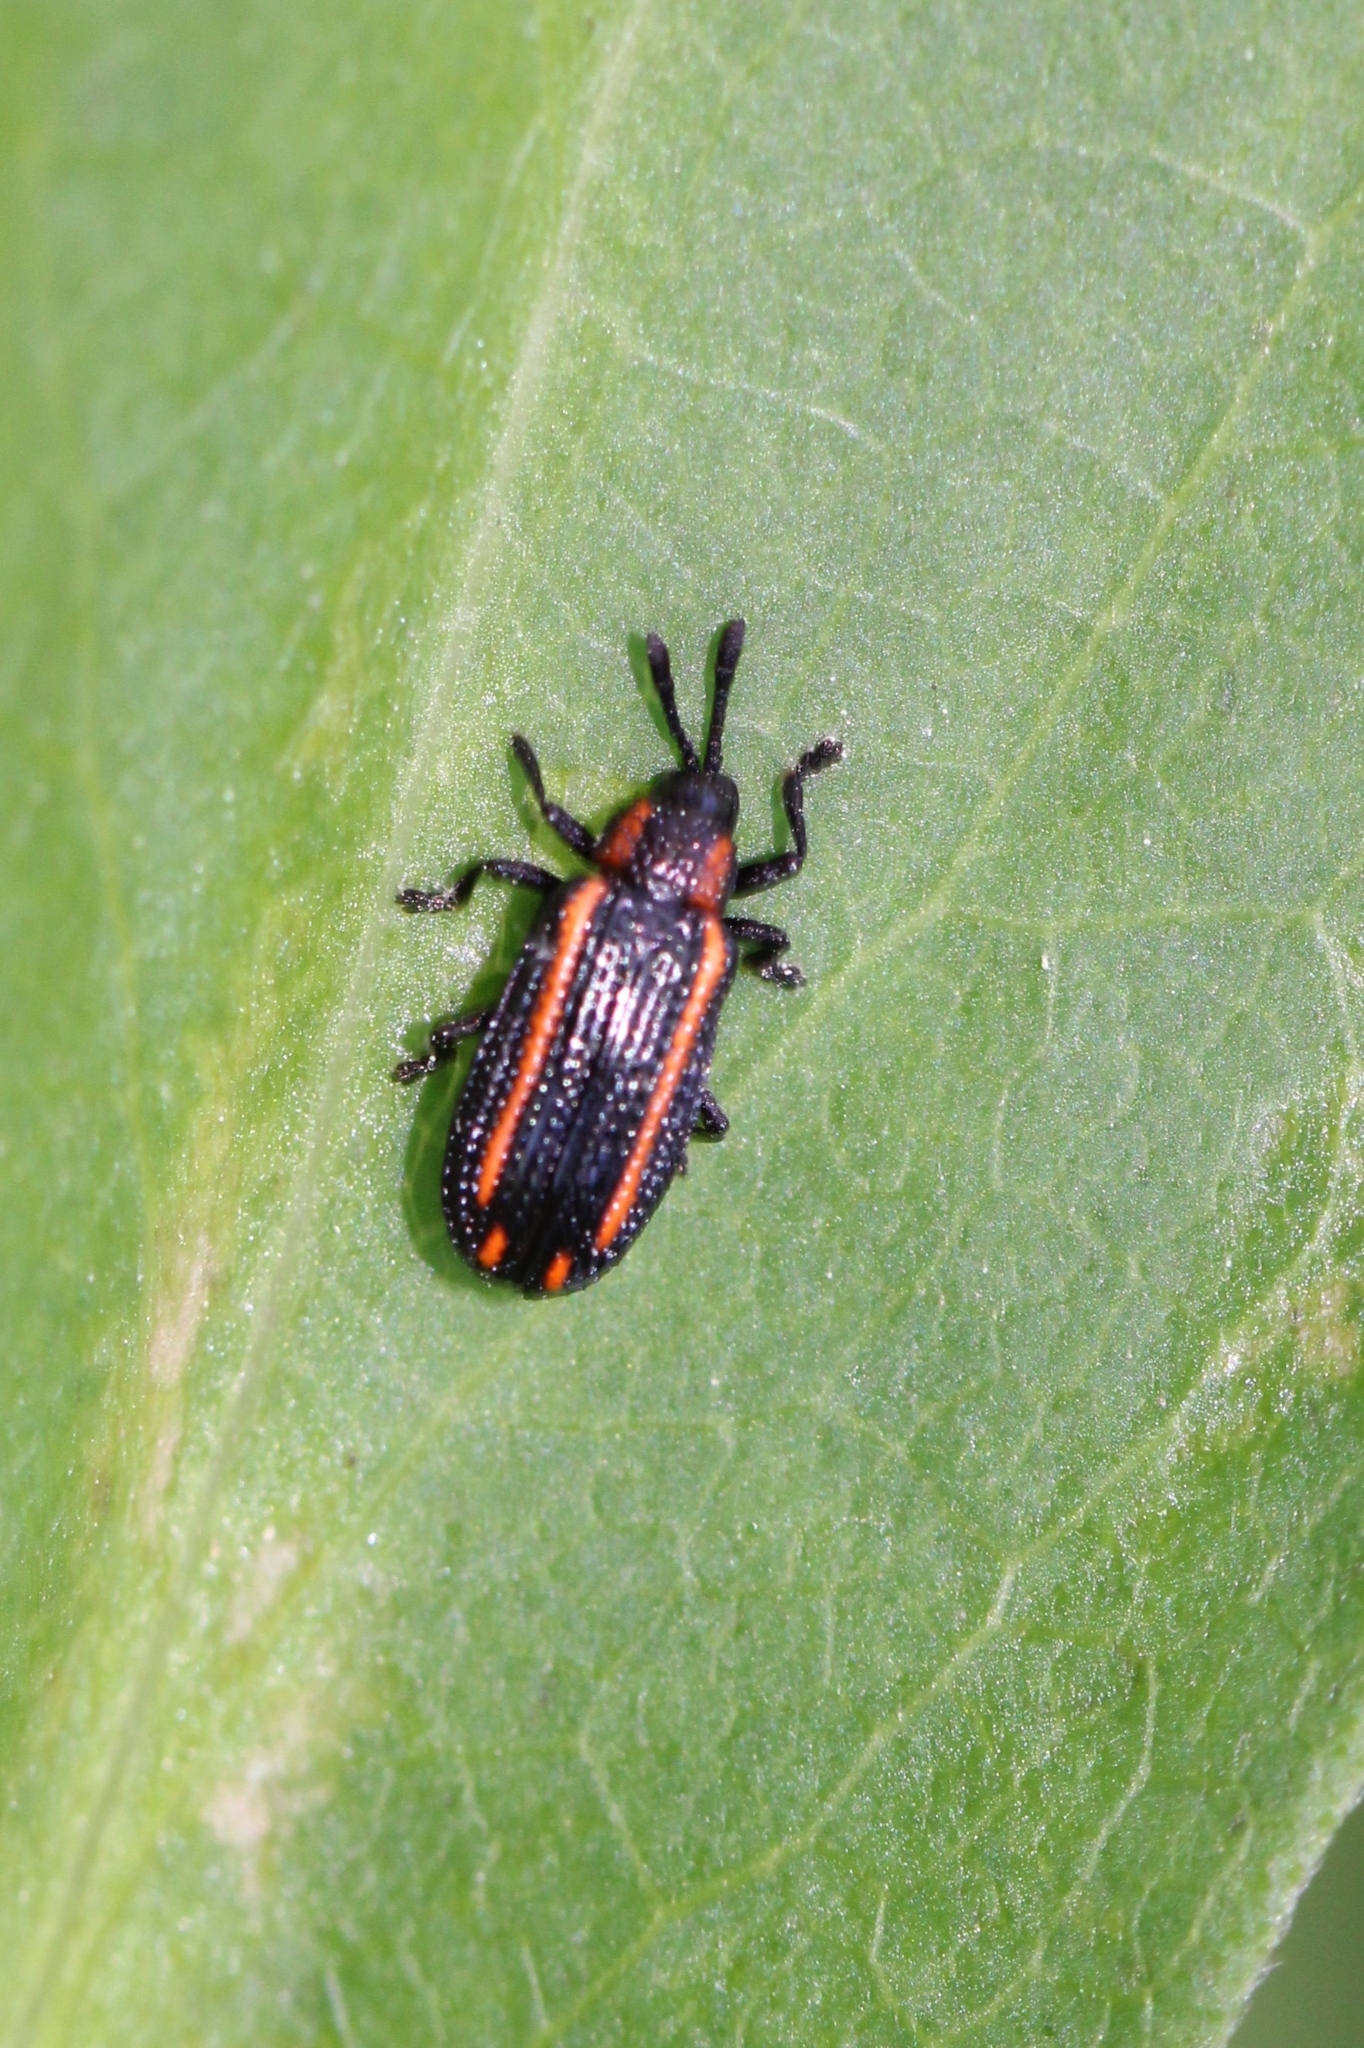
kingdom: Animalia
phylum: Arthropoda
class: Insecta
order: Coleoptera
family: Chrysomelidae
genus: Microrhopala
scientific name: Microrhopala xerene
